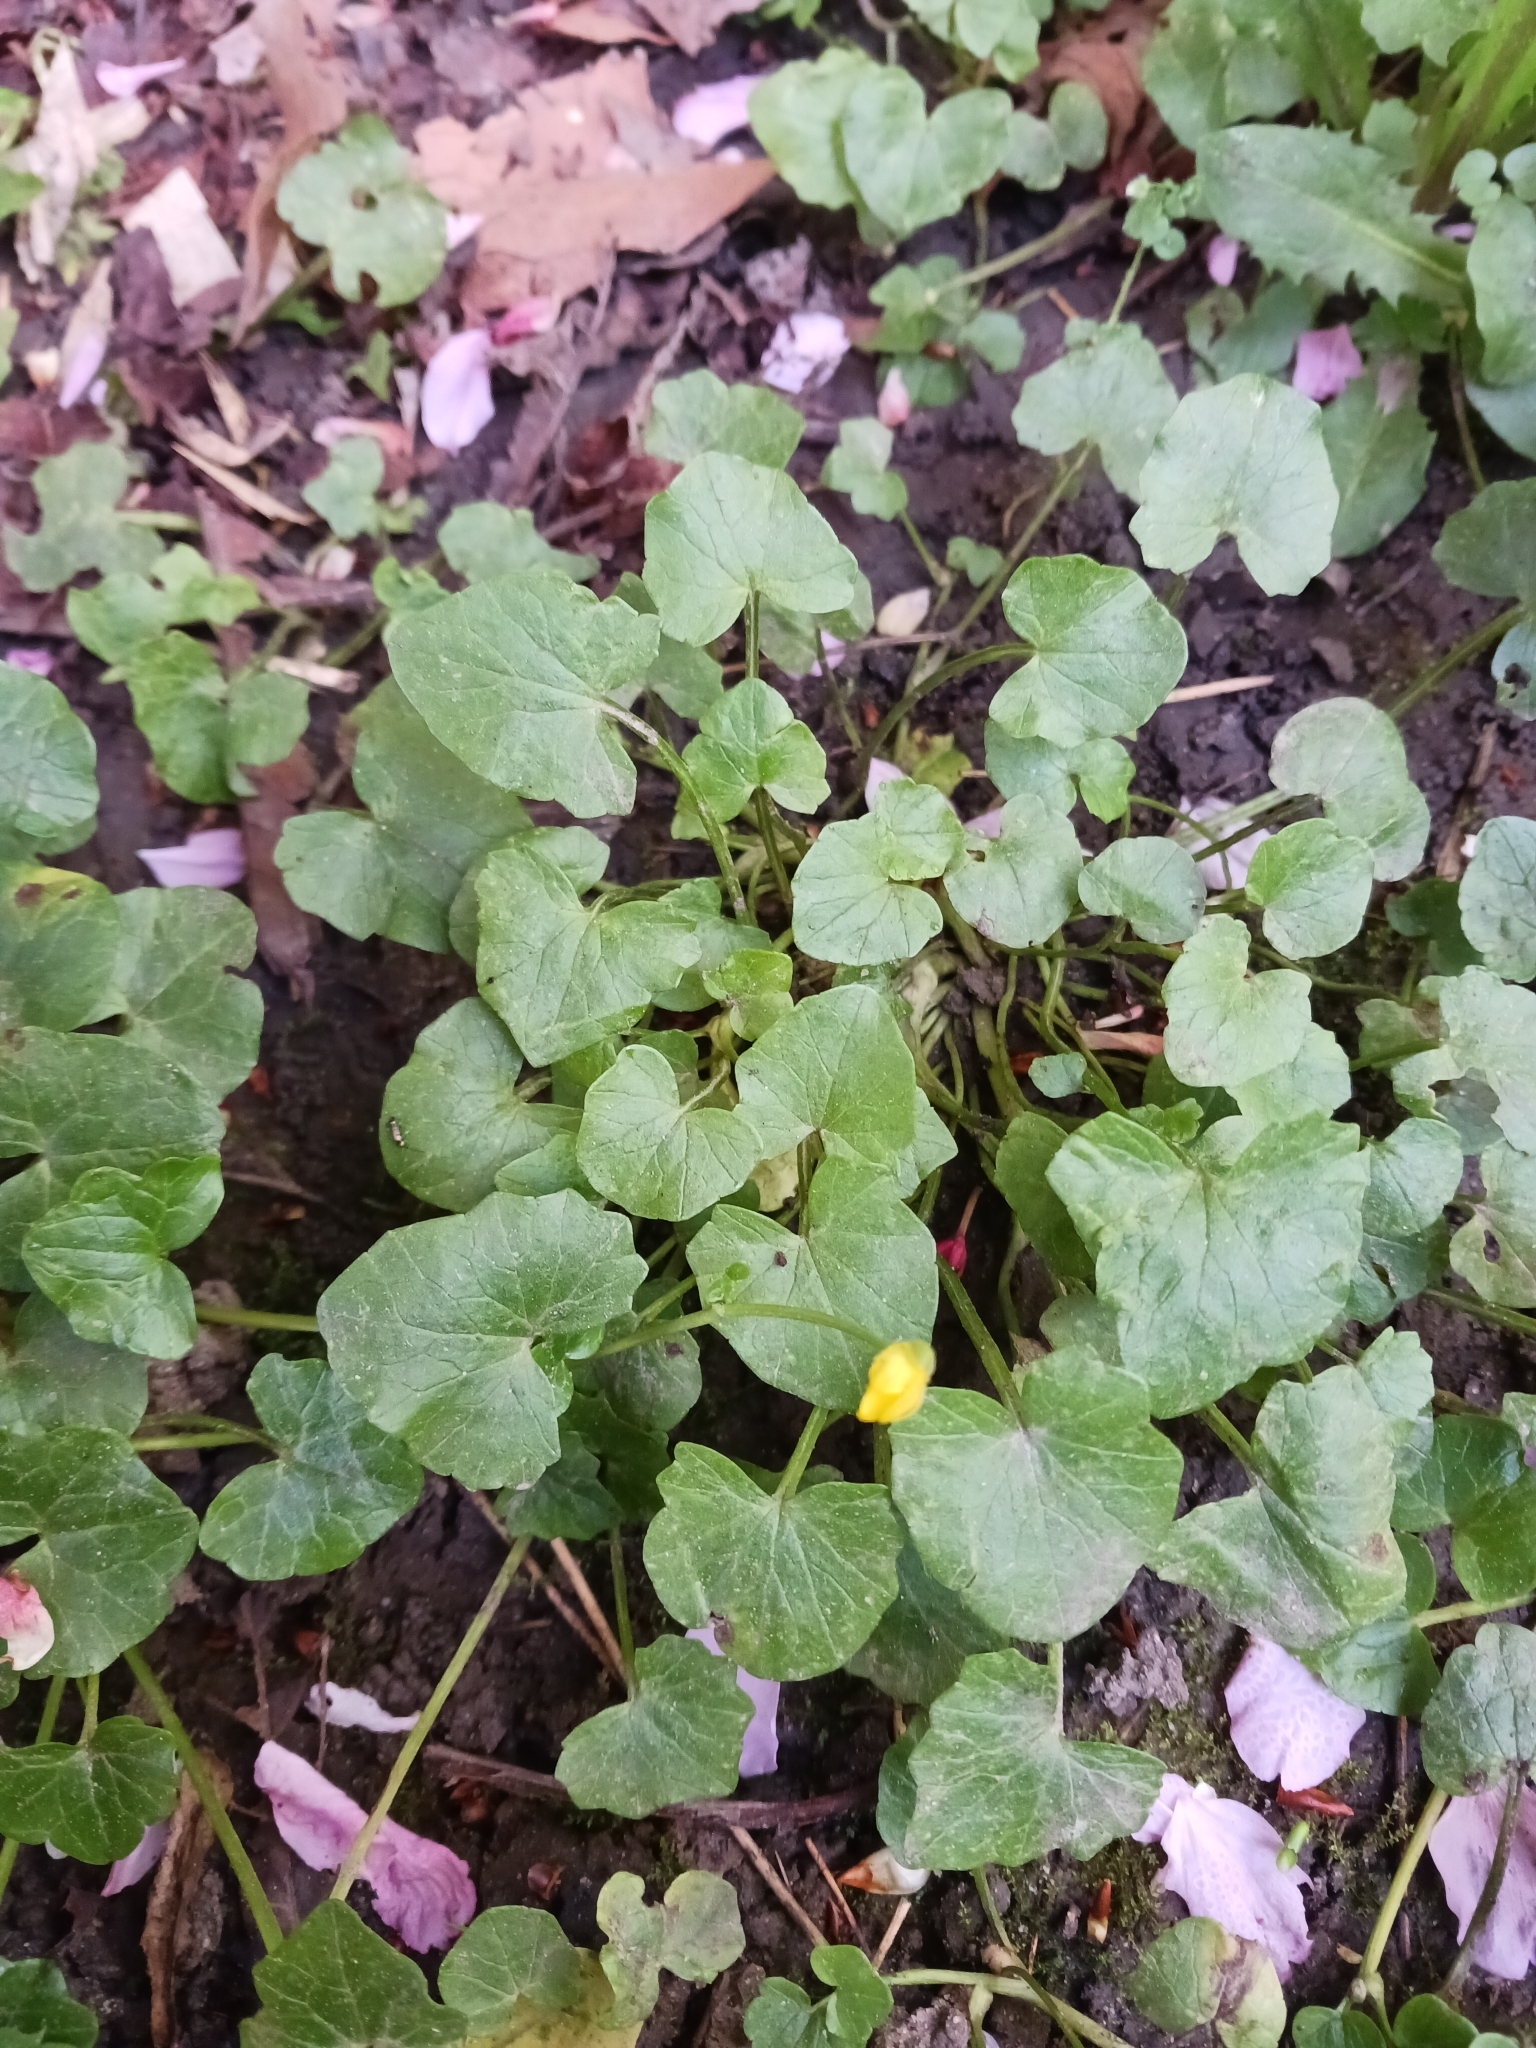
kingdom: Plantae
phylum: Tracheophyta
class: Magnoliopsida
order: Ranunculales
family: Ranunculaceae
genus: Ficaria
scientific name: Ficaria verna
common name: Lesser celandine
